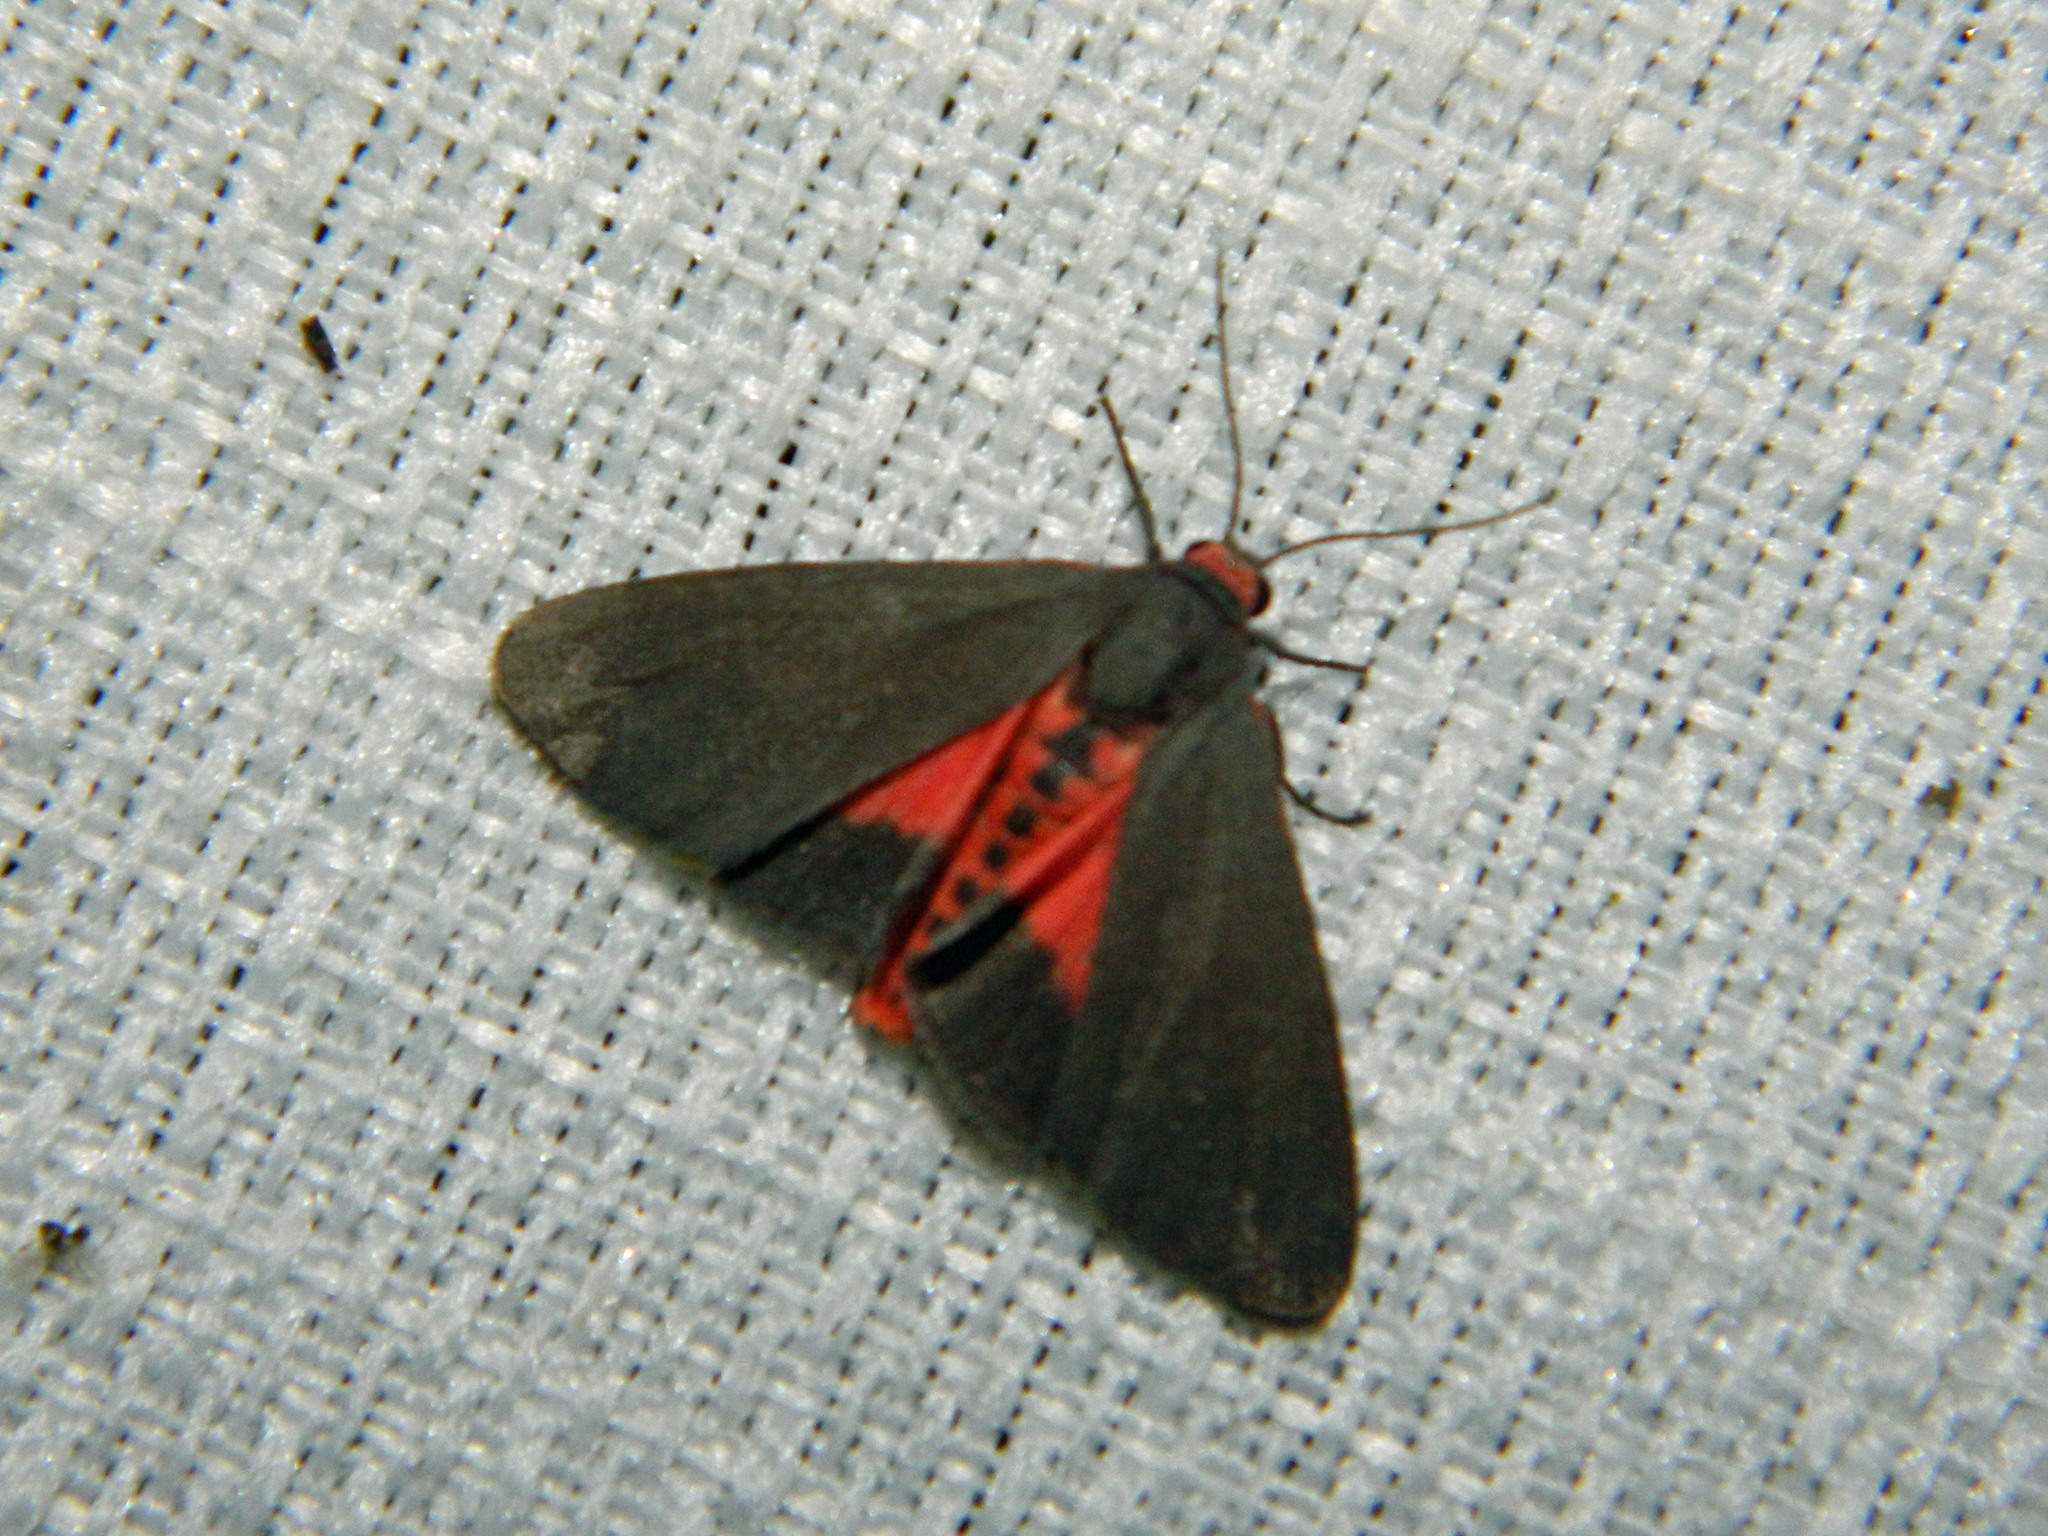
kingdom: Animalia
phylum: Arthropoda
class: Insecta
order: Lepidoptera
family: Erebidae
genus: Virbia
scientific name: Virbia laeta
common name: Joyful holomelina moth
